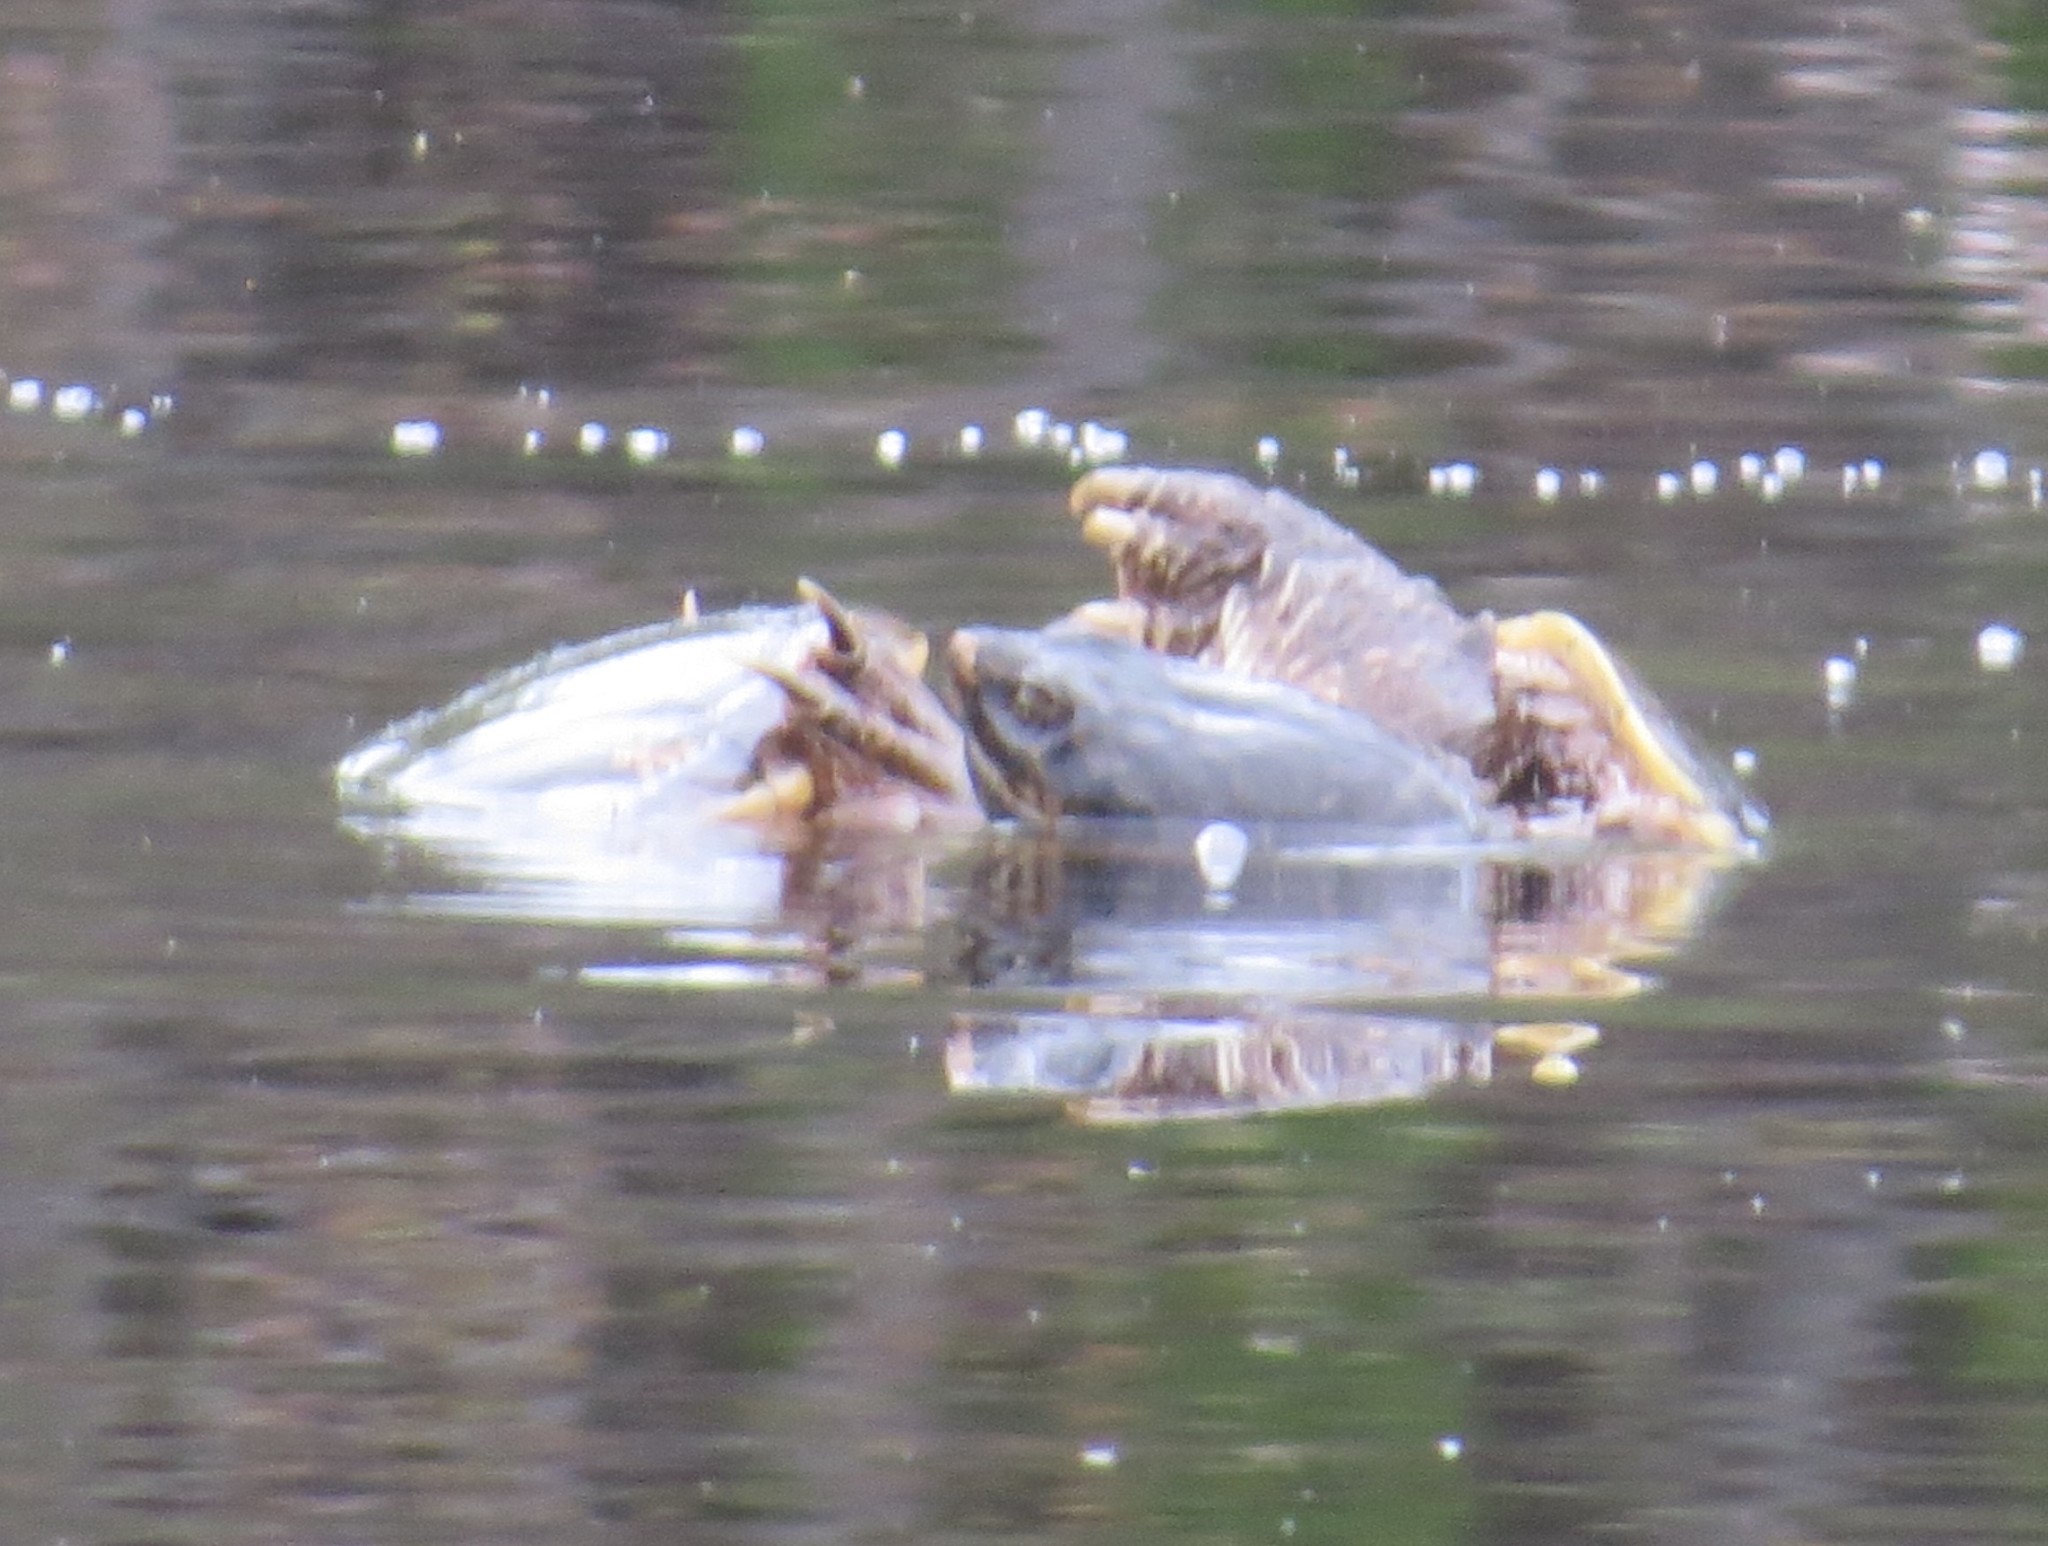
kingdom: Animalia
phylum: Chordata
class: Testudines
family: Chelydridae
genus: Chelydra
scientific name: Chelydra serpentina
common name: Common snapping turtle
